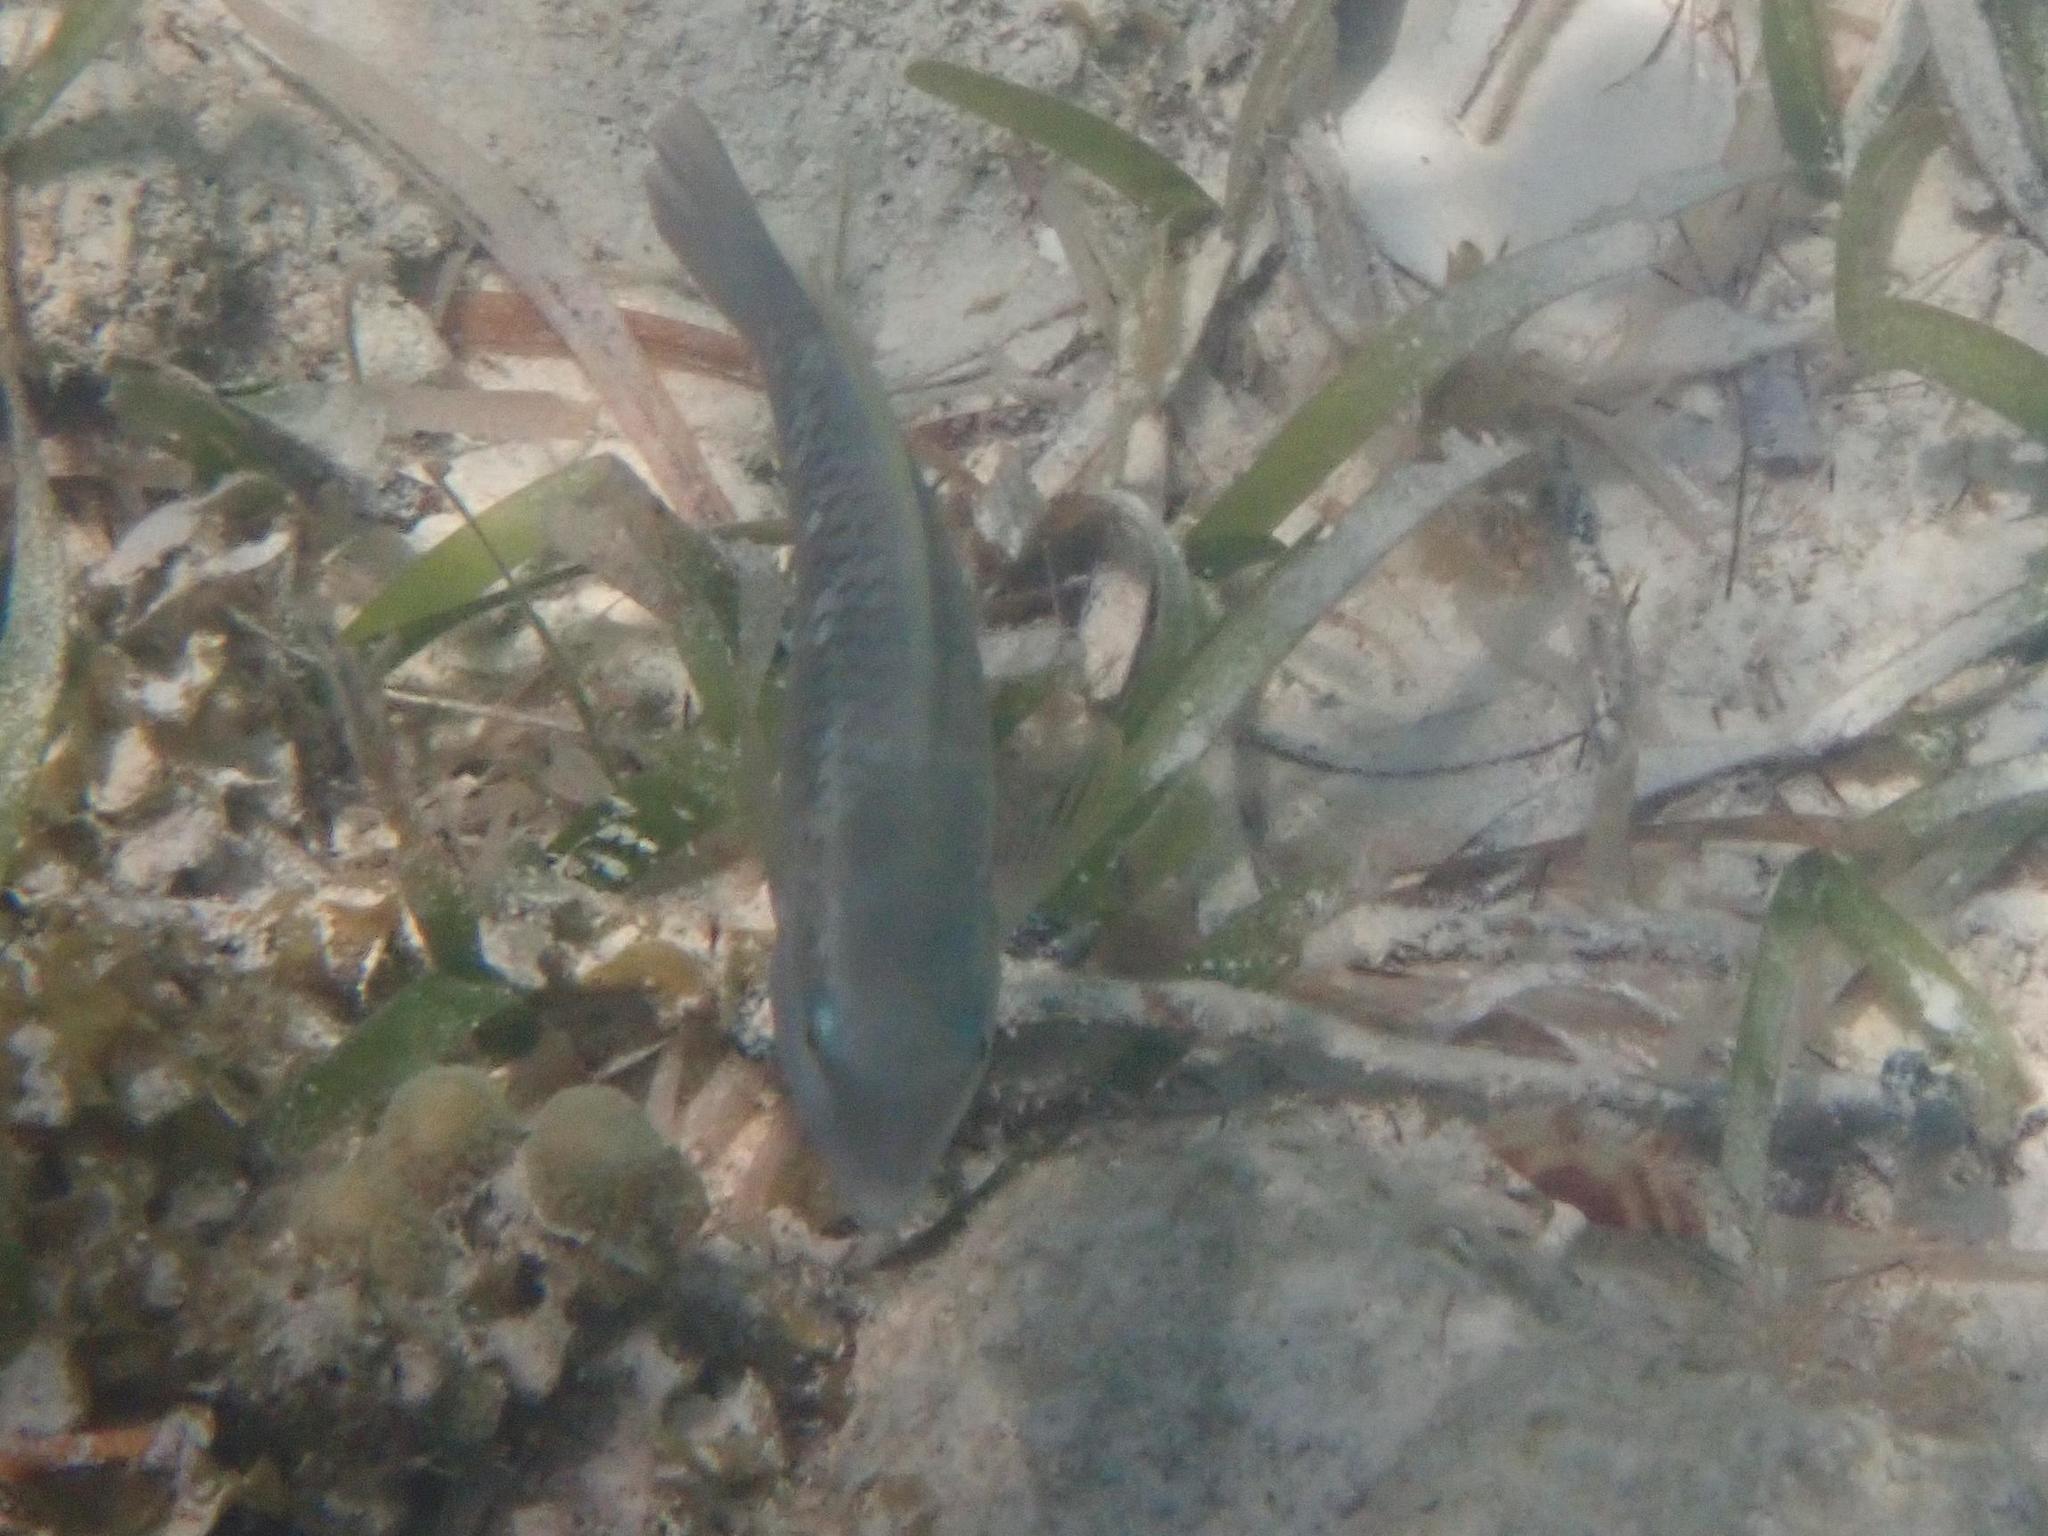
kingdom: Animalia
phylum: Chordata
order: Perciformes
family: Scaridae
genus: Scarus
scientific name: Scarus iseri
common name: Striped parrotfish
